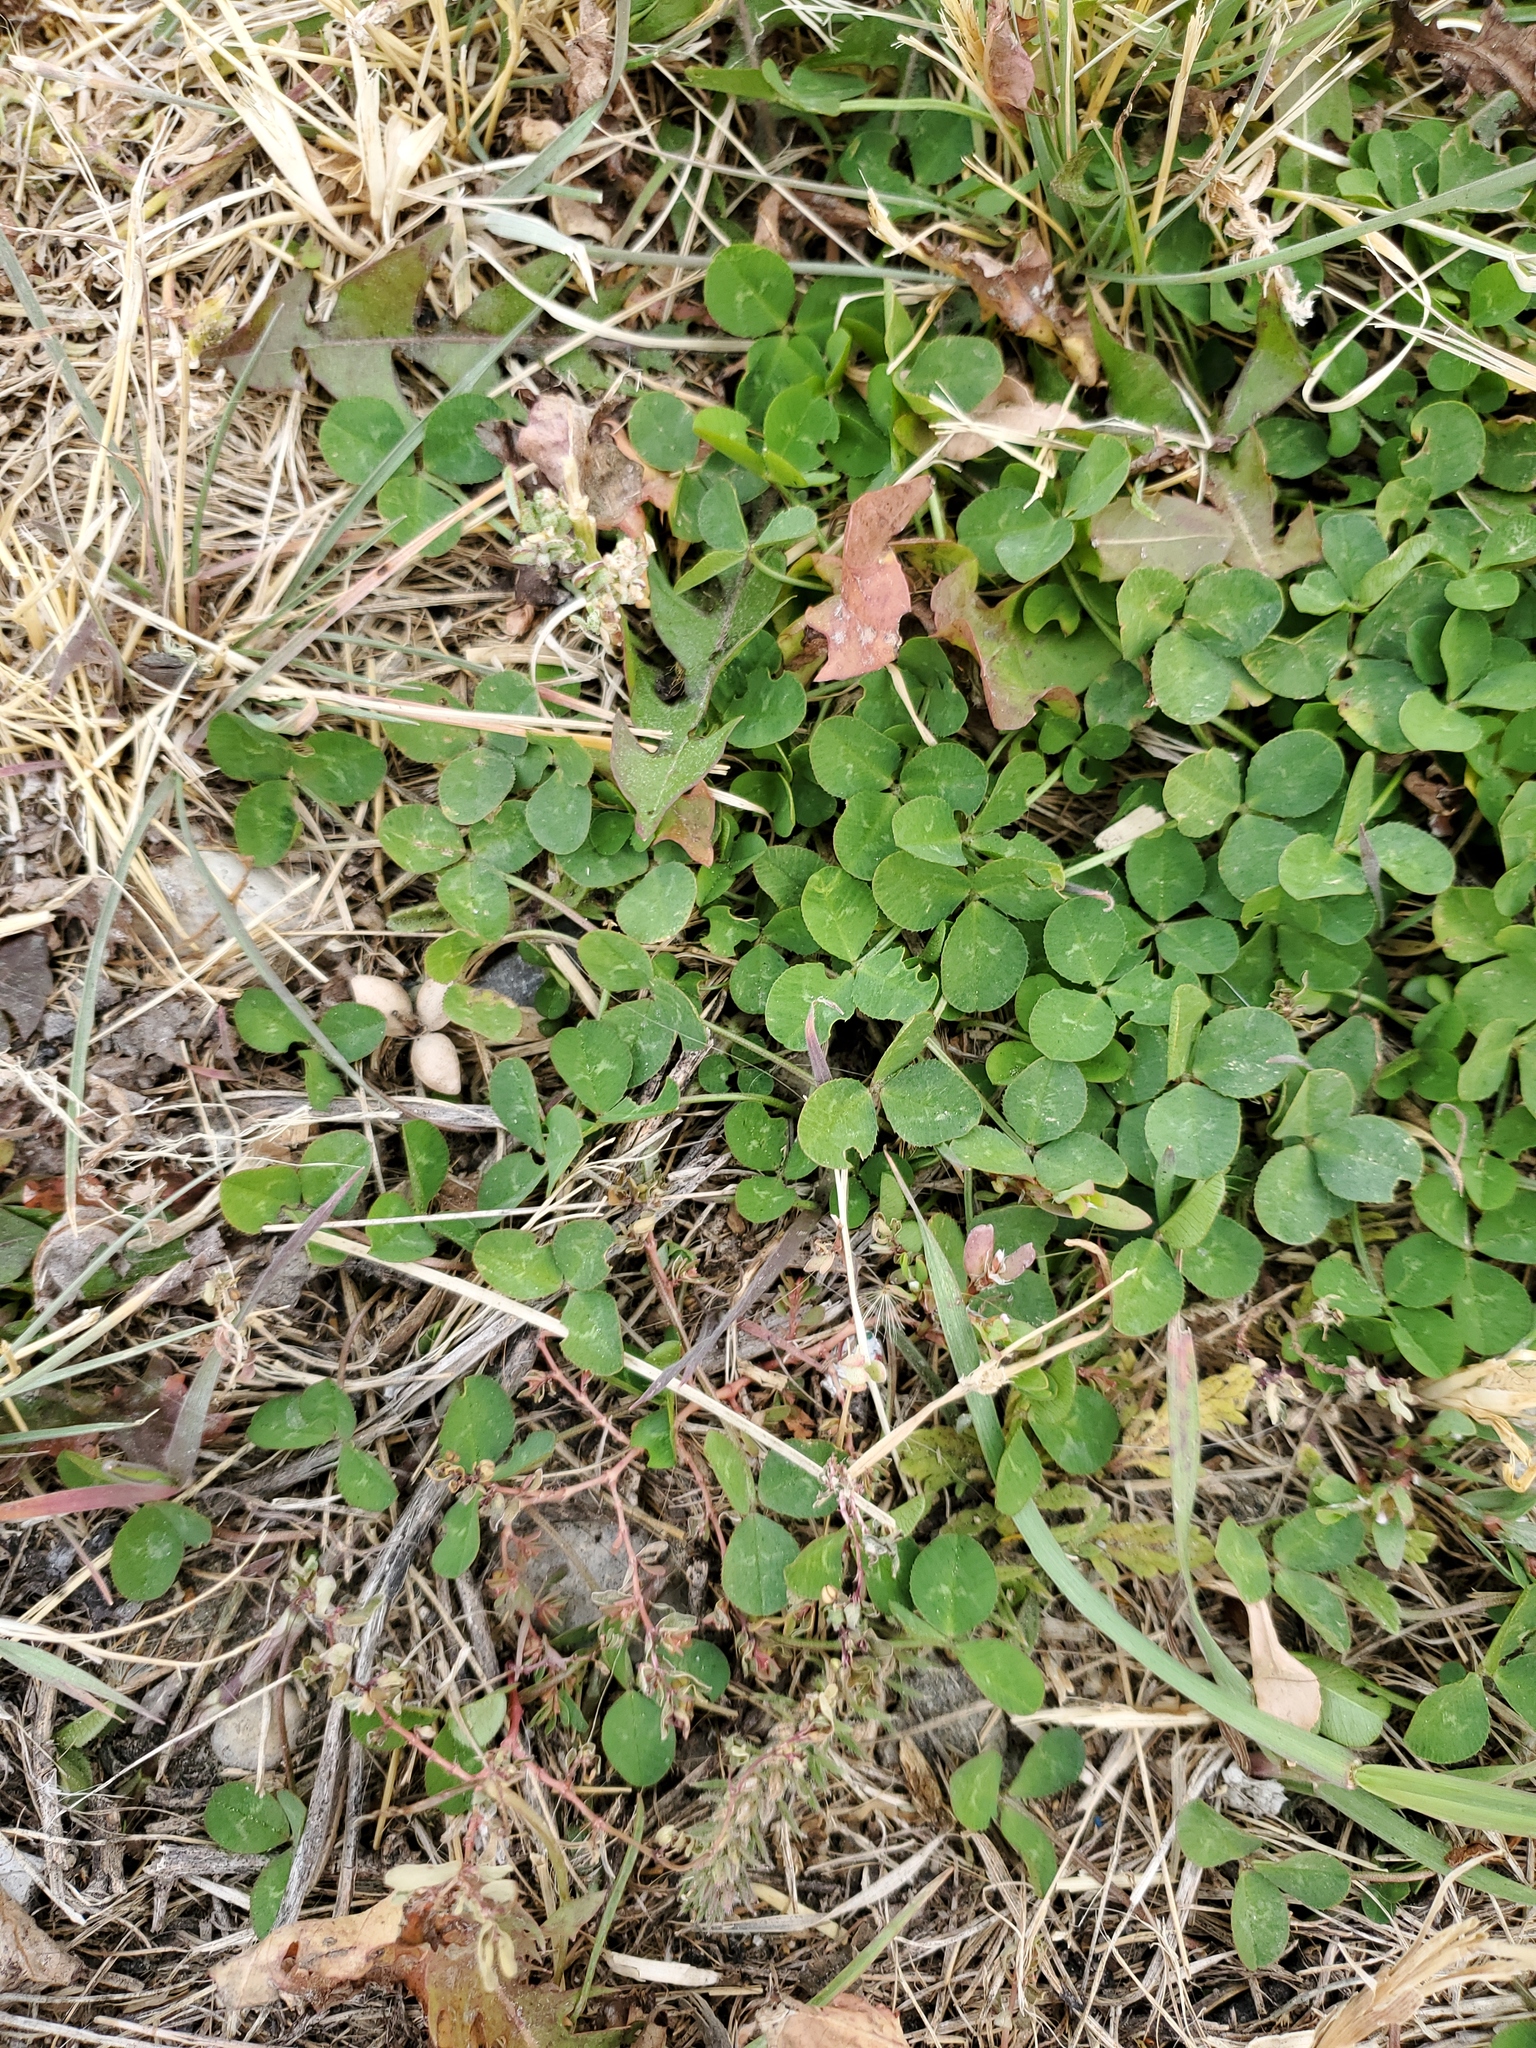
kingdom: Plantae
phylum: Tracheophyta
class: Magnoliopsida
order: Fabales
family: Fabaceae
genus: Trifolium
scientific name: Trifolium repens
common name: White clover
